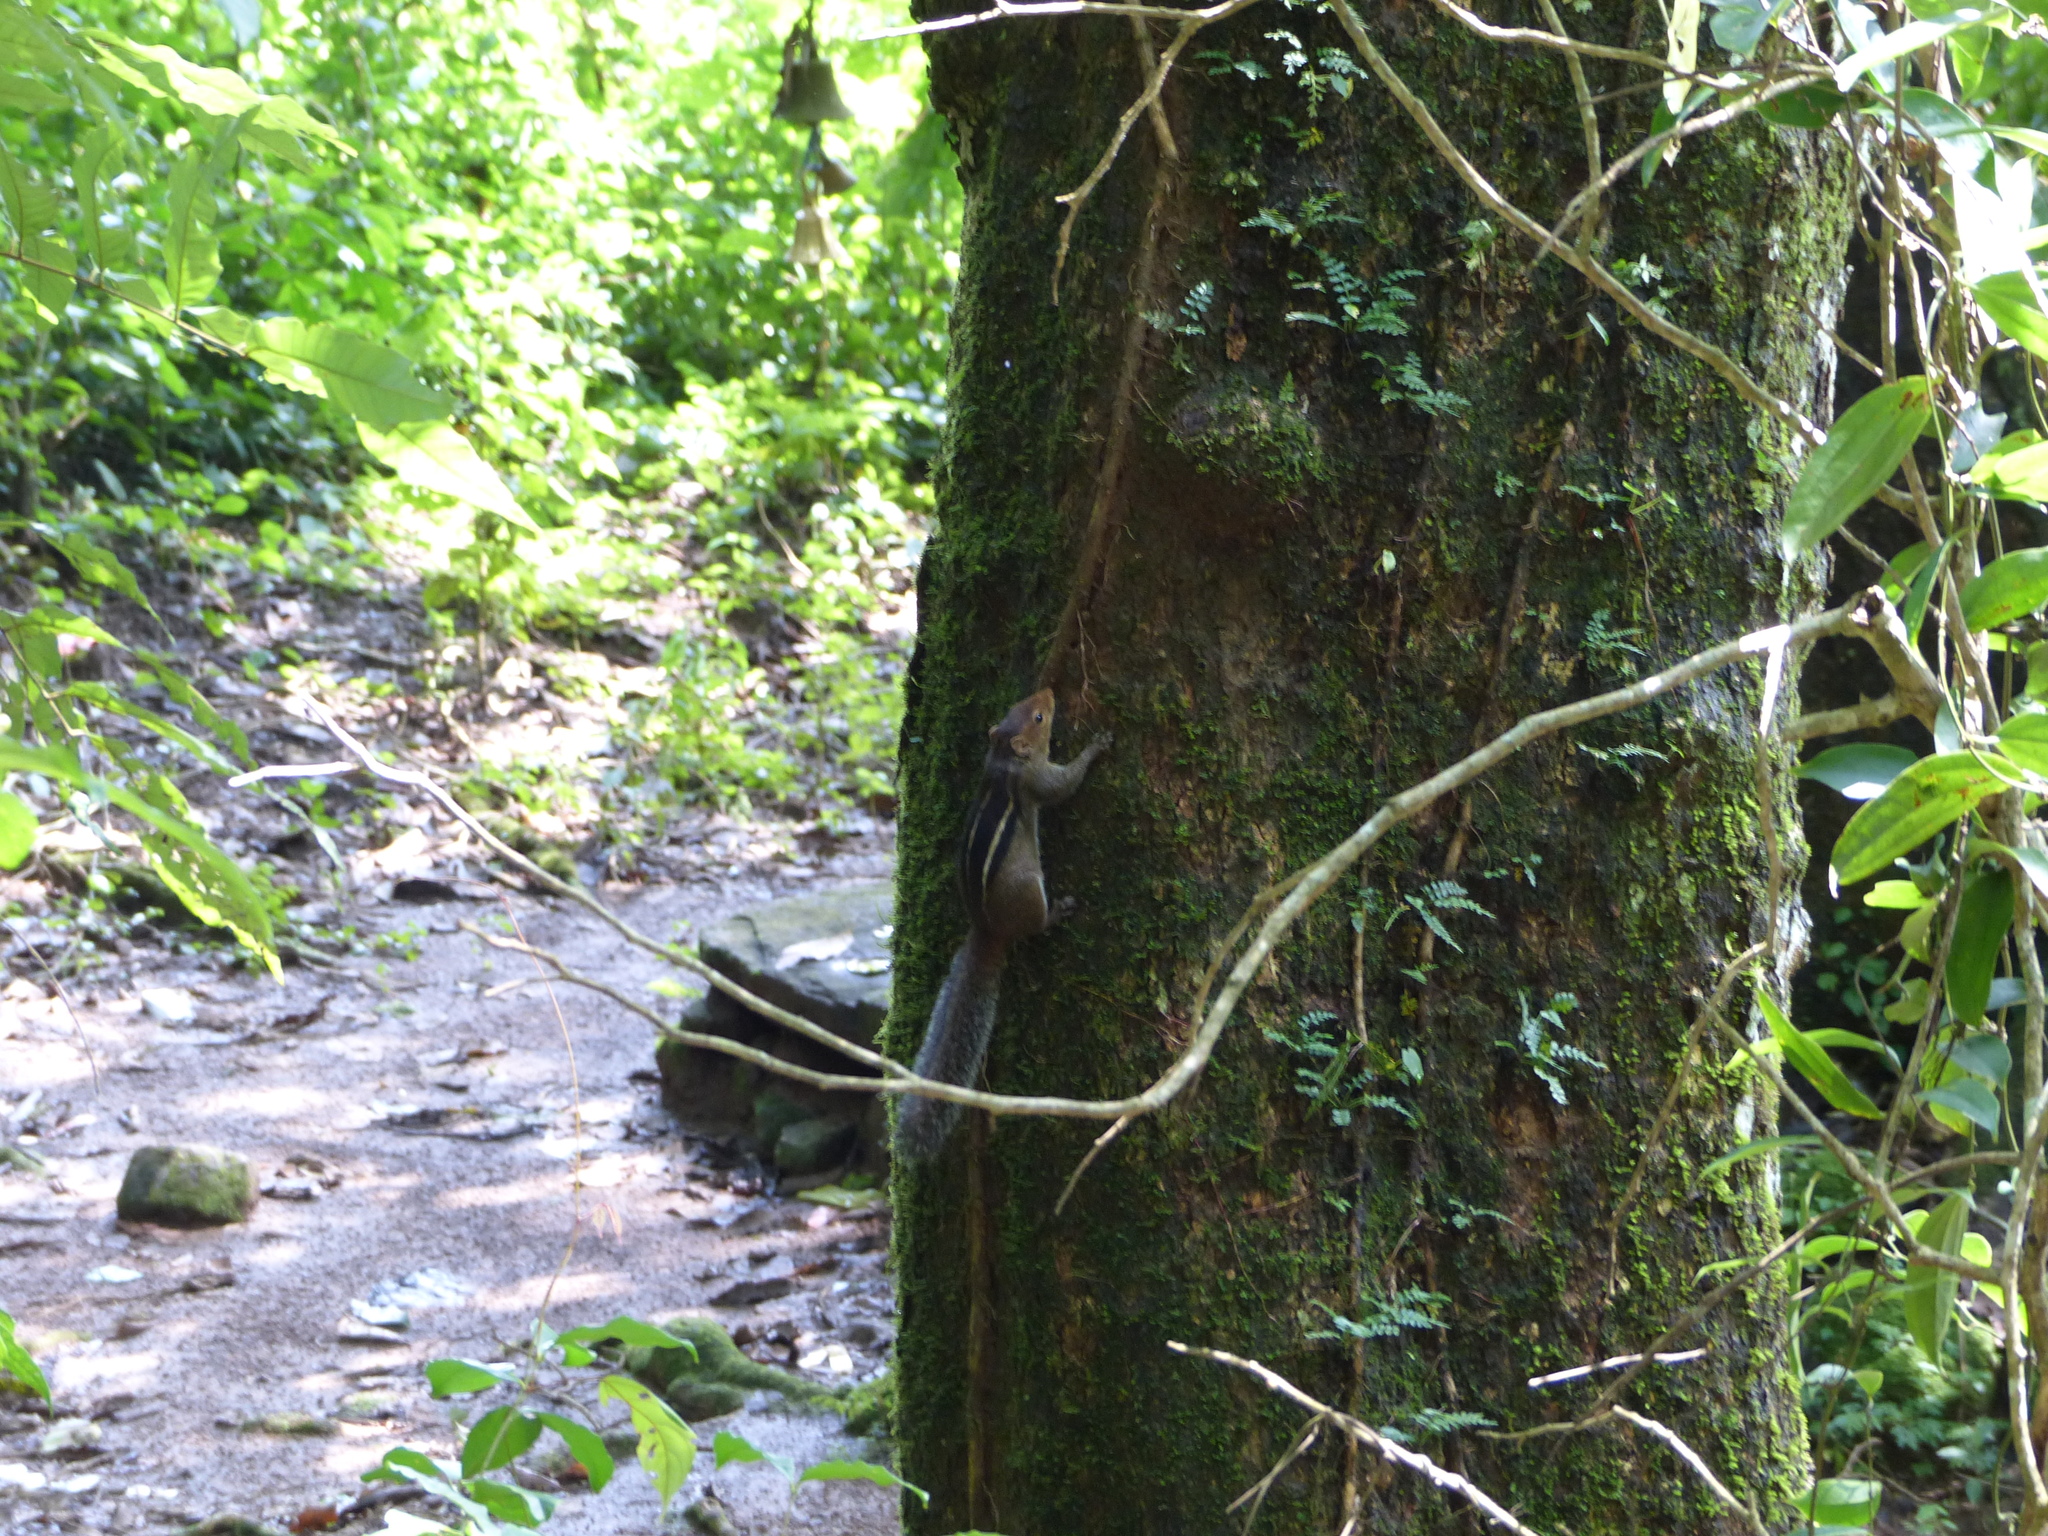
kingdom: Animalia
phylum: Chordata
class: Mammalia
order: Rodentia
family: Sciuridae
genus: Funambulus
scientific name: Funambulus tristriatus
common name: Jungle palm squirrel
